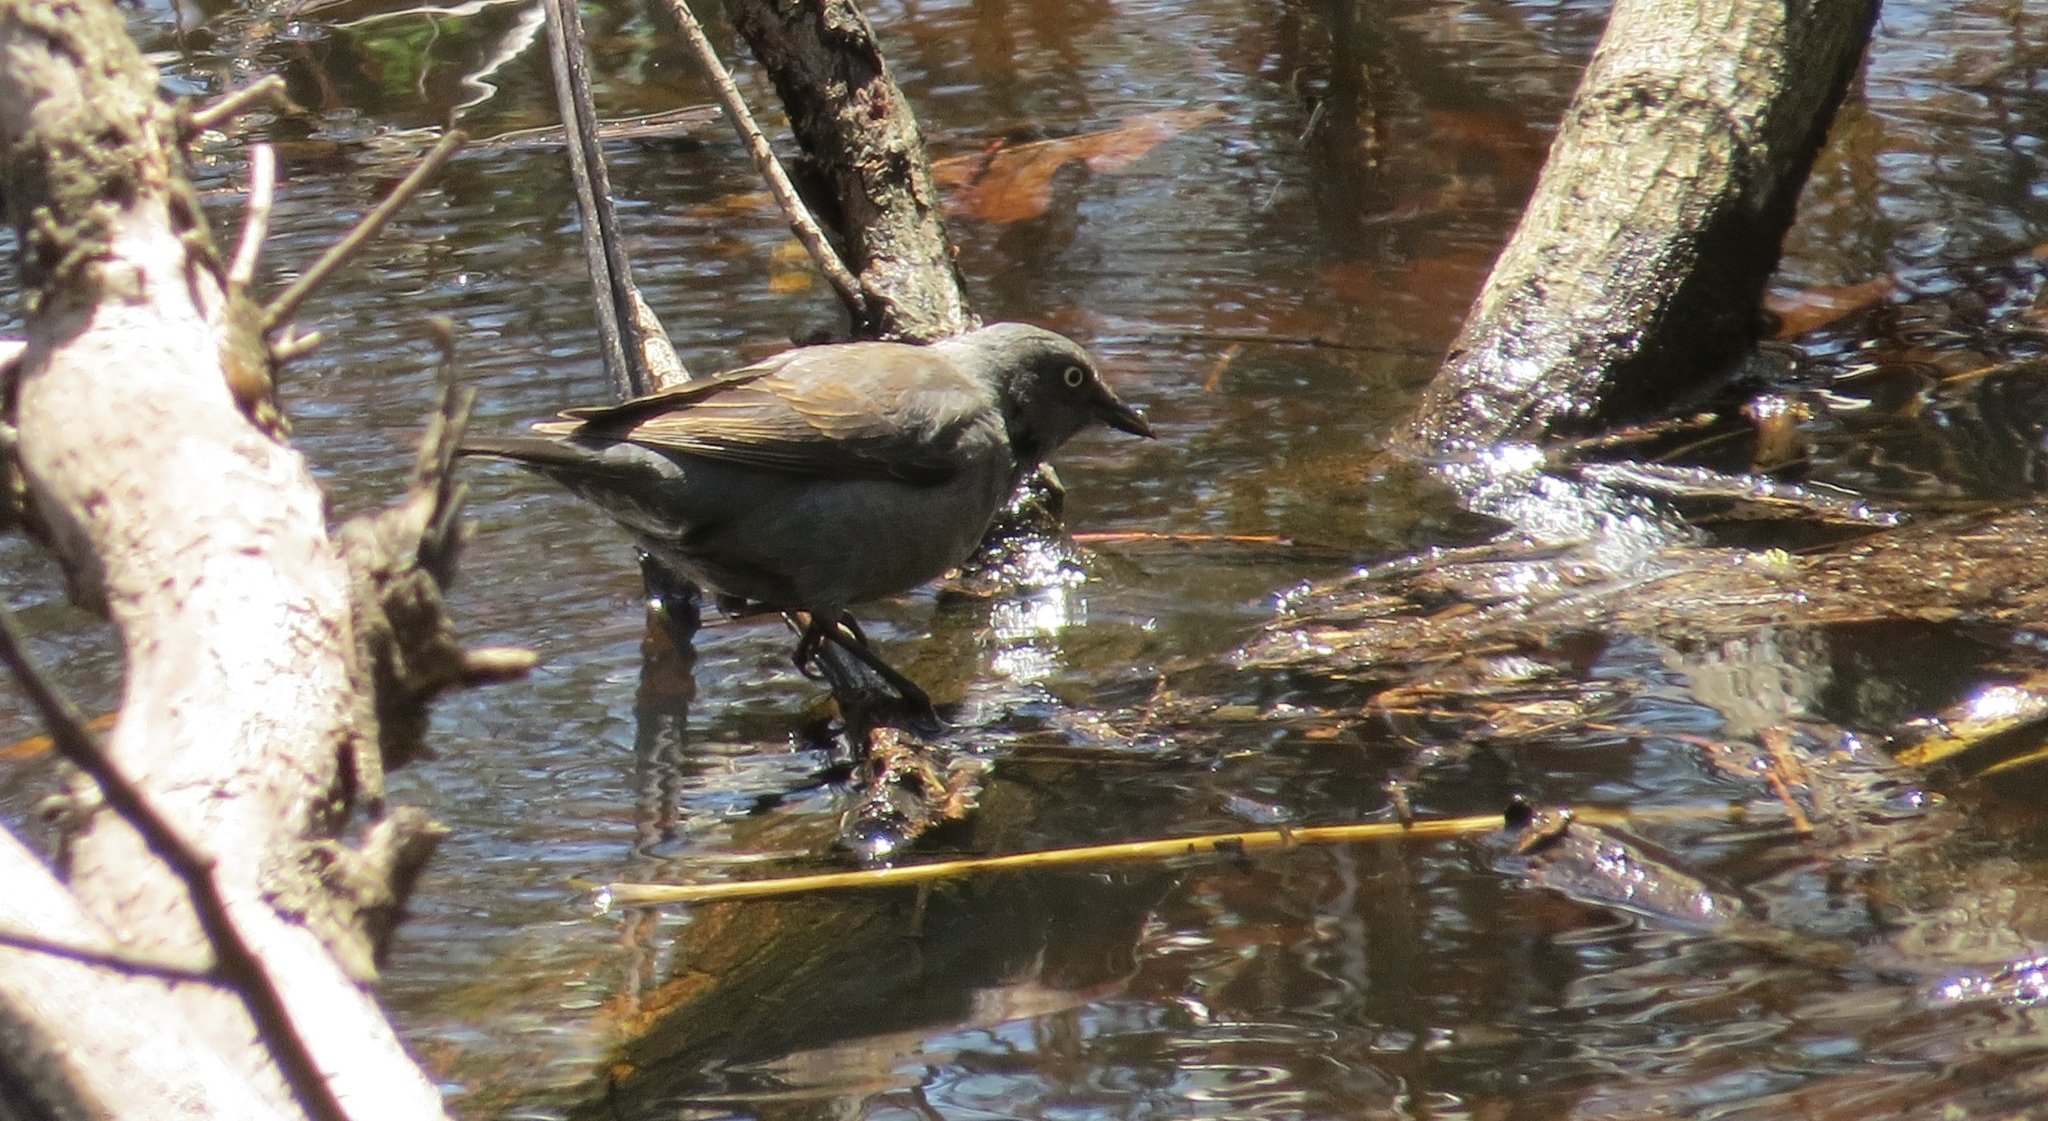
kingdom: Animalia
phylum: Chordata
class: Aves
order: Passeriformes
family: Icteridae
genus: Euphagus
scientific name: Euphagus carolinus
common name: Rusty blackbird
